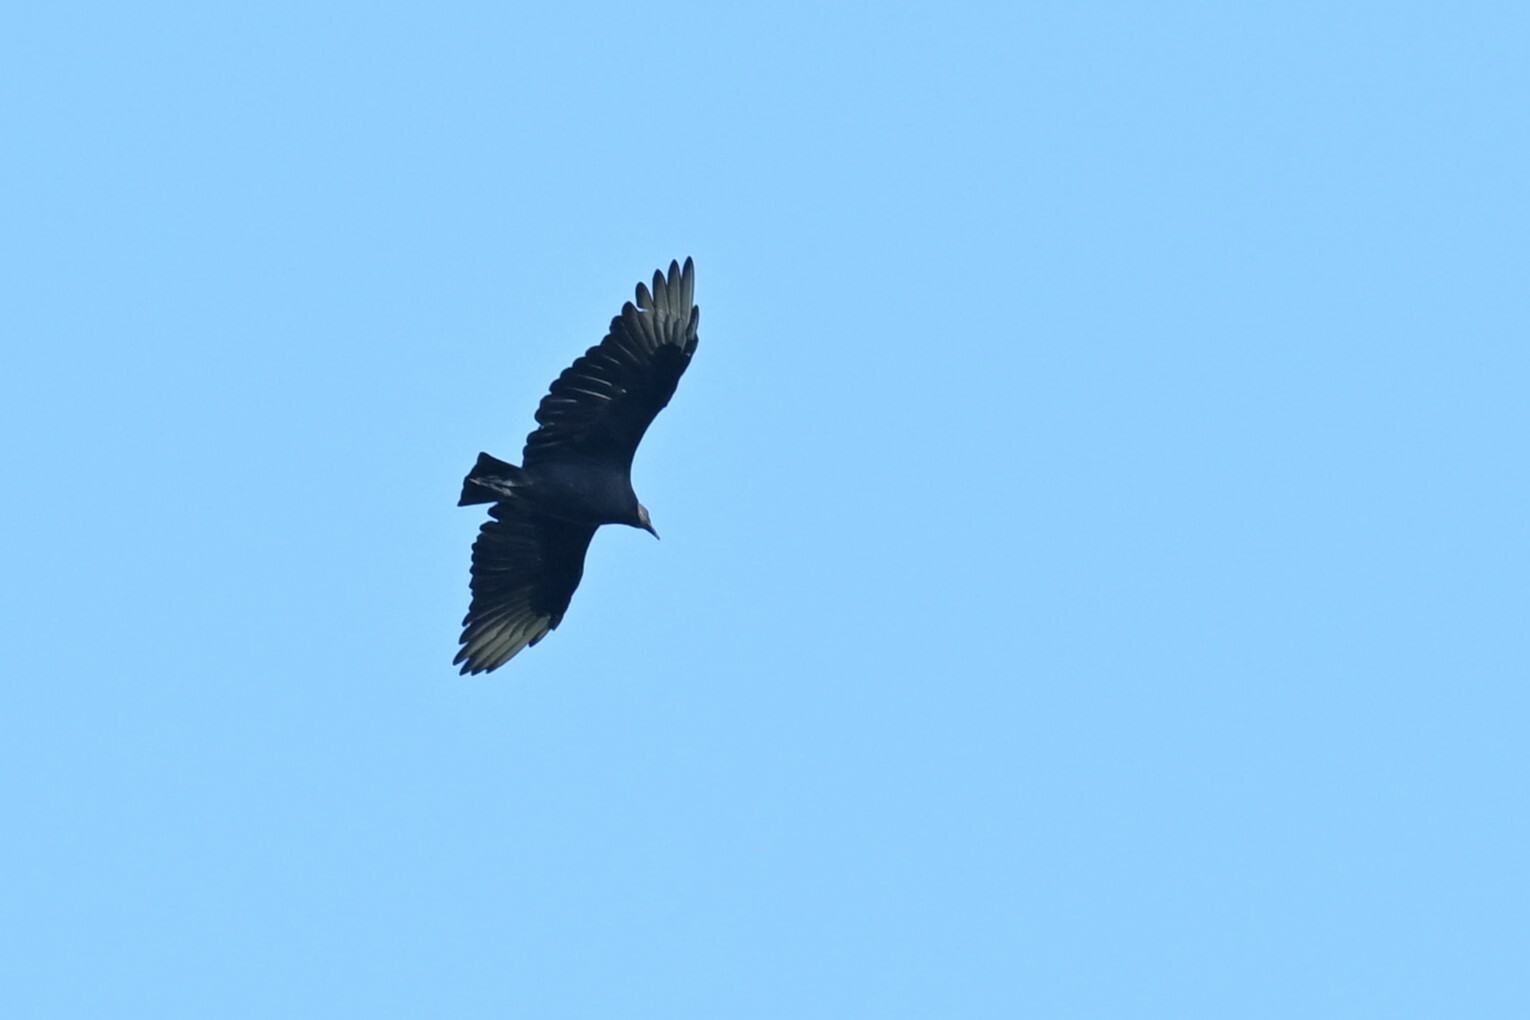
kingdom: Animalia
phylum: Chordata
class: Aves
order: Accipitriformes
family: Cathartidae
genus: Coragyps
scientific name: Coragyps atratus
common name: Black vulture
